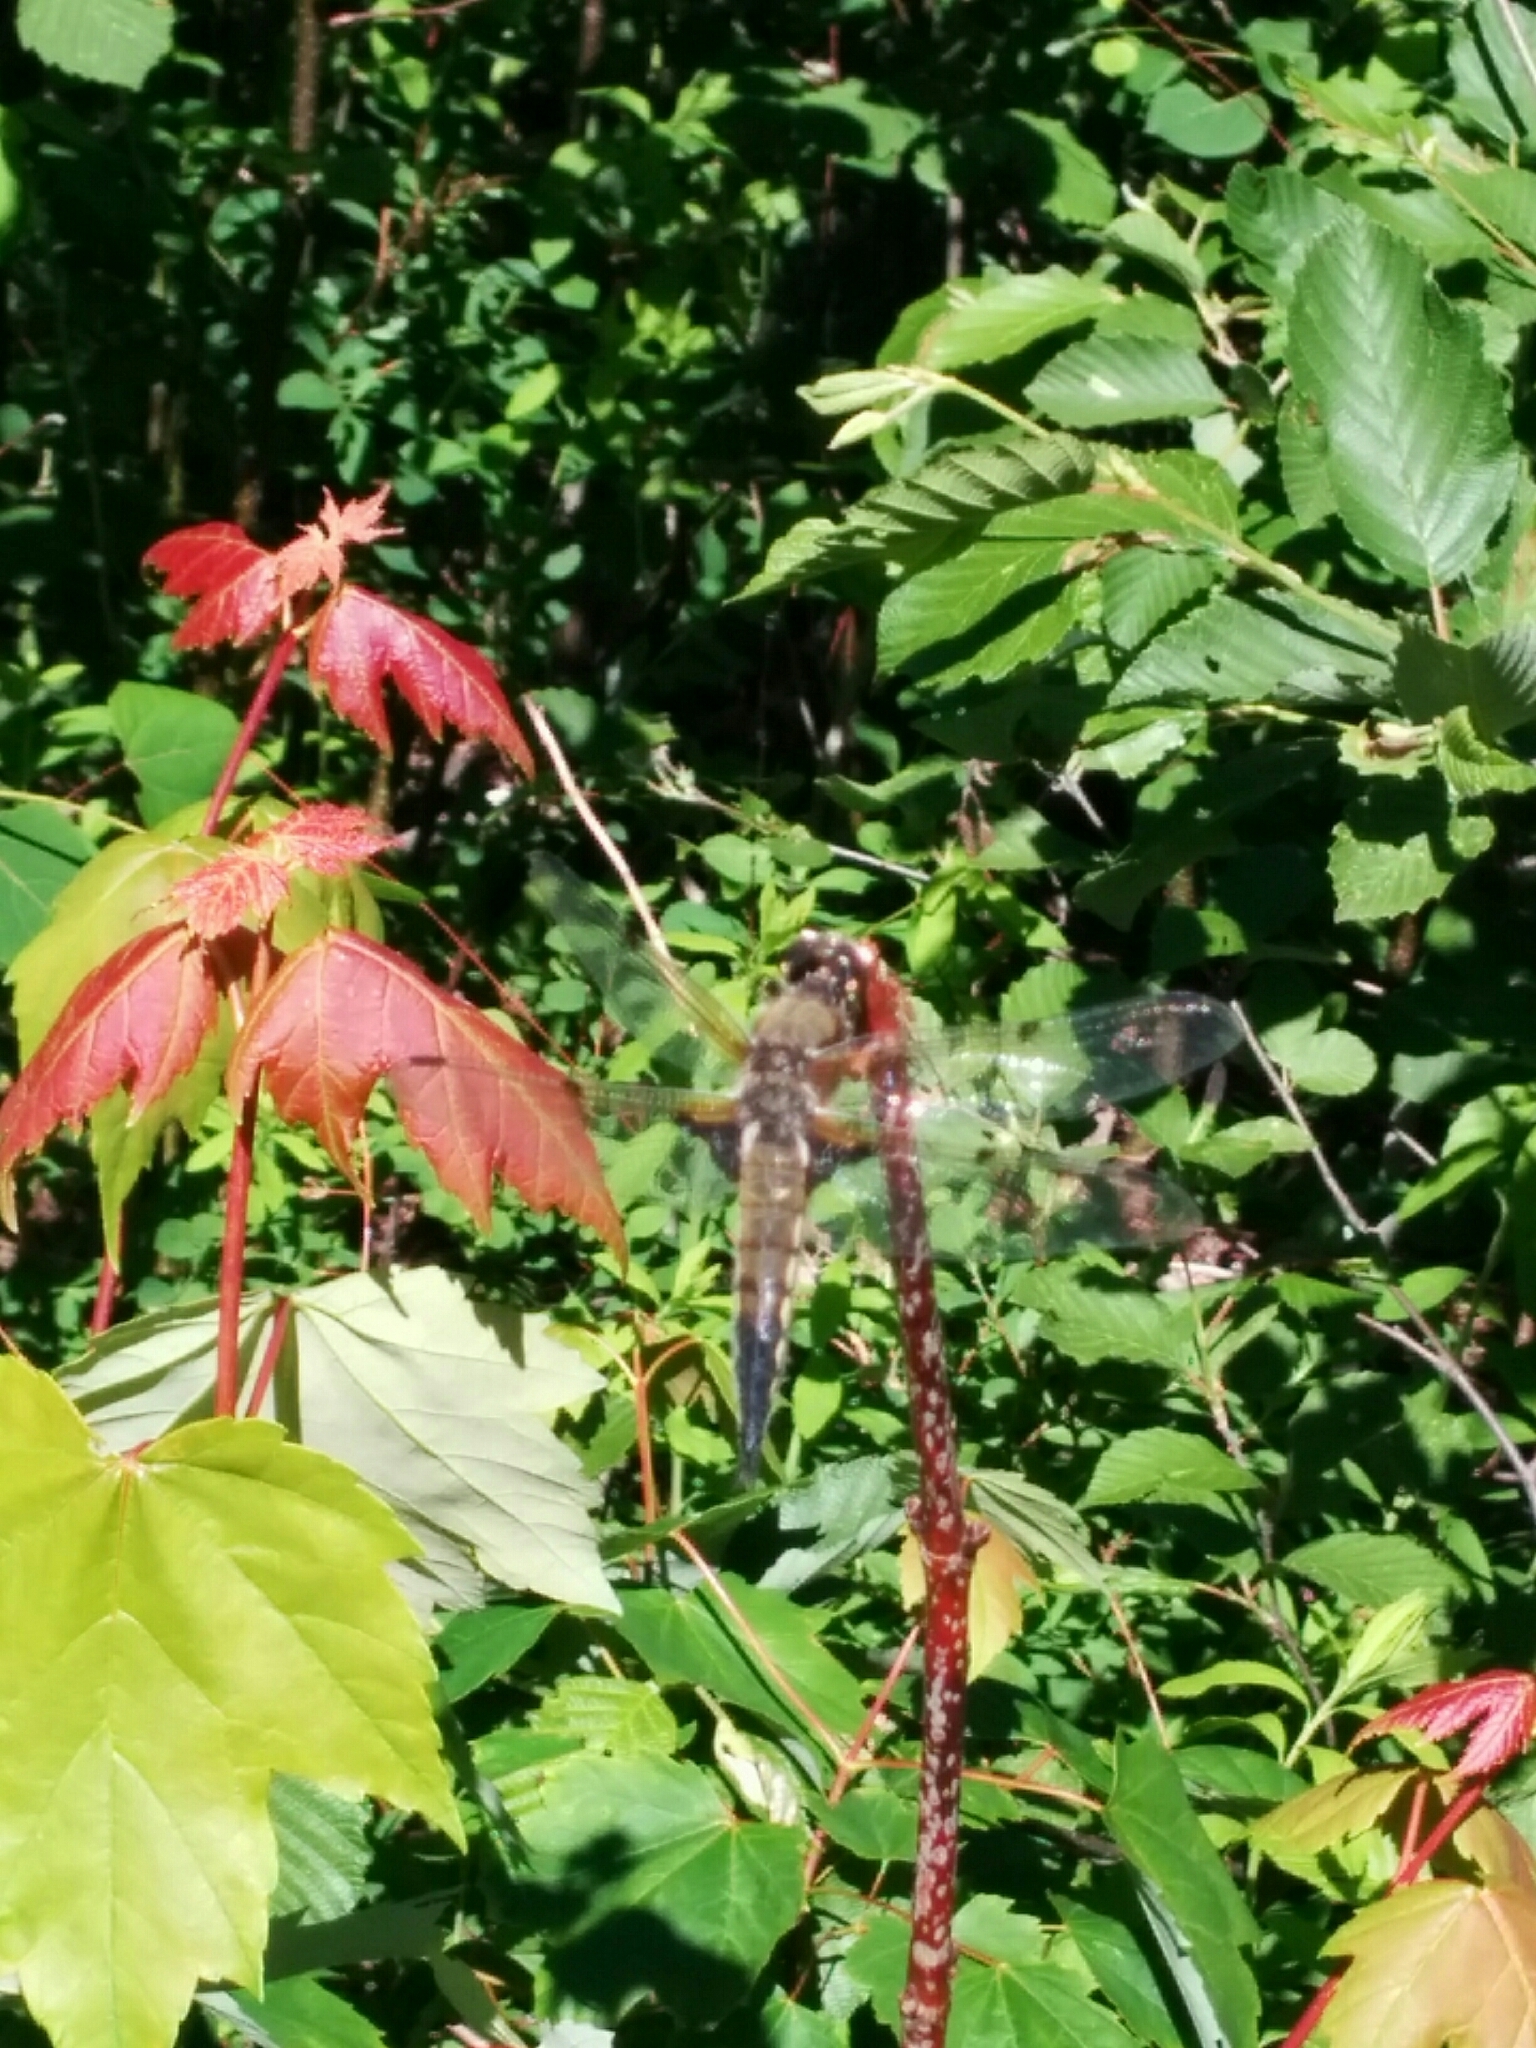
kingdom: Animalia
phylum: Arthropoda
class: Insecta
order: Odonata
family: Libellulidae
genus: Libellula
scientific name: Libellula quadrimaculata
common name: Four-spotted chaser
